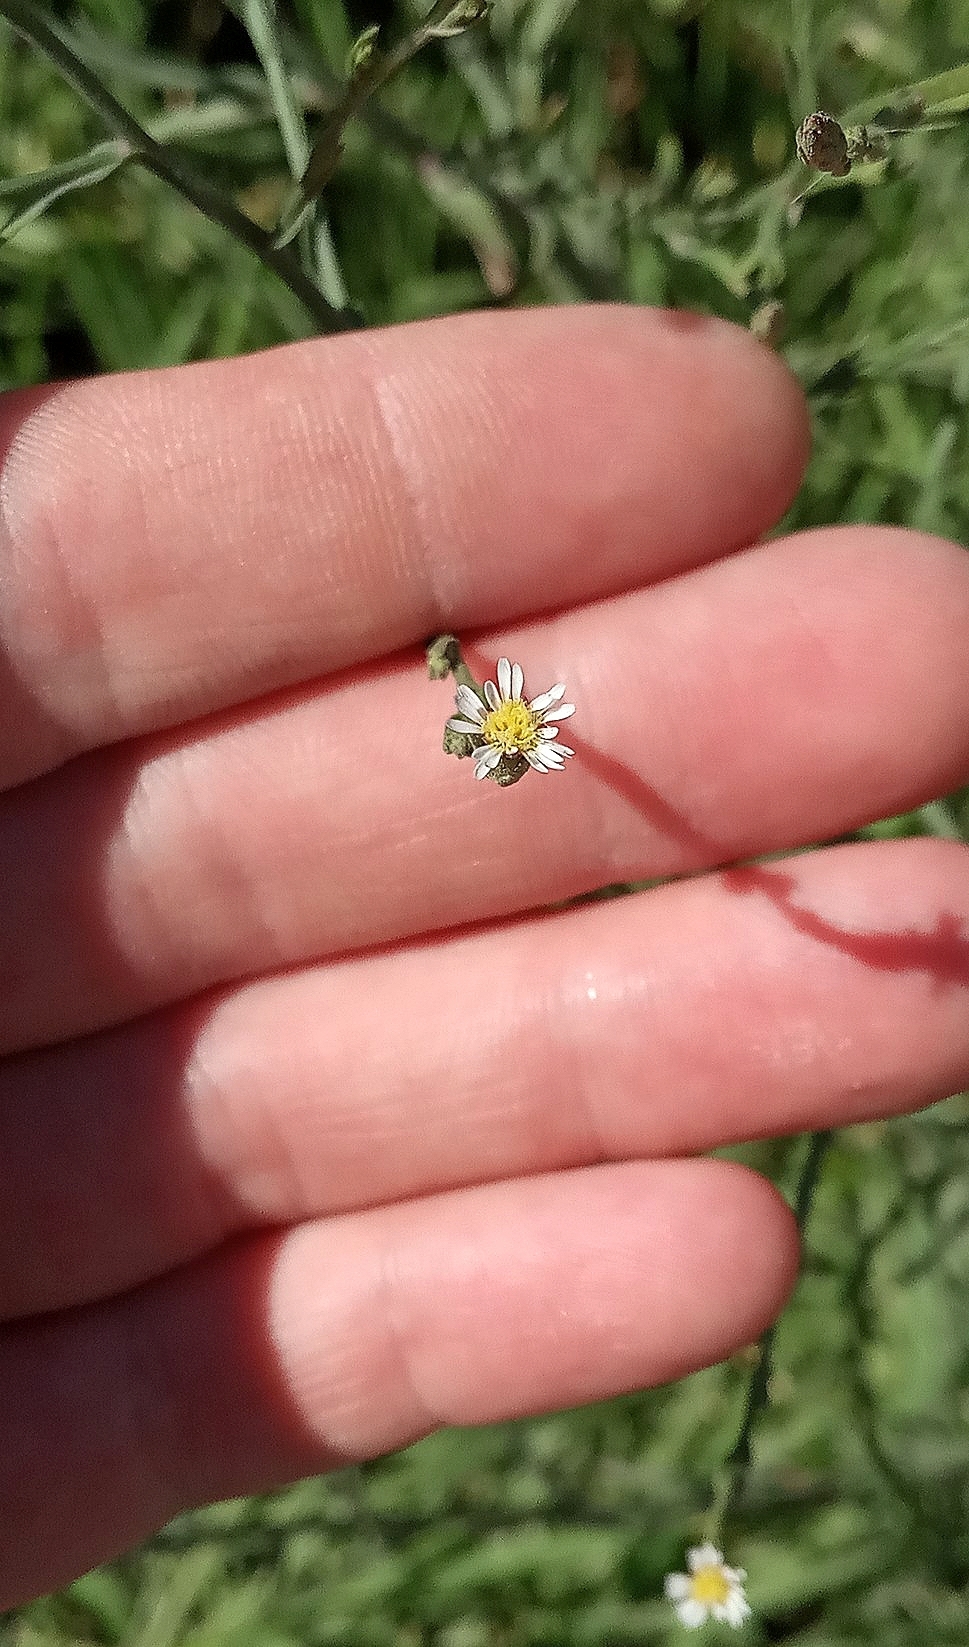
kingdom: Plantae
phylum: Tracheophyta
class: Magnoliopsida
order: Asterales
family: Asteraceae
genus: Symphyotrichum
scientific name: Symphyotrichum squamatum
